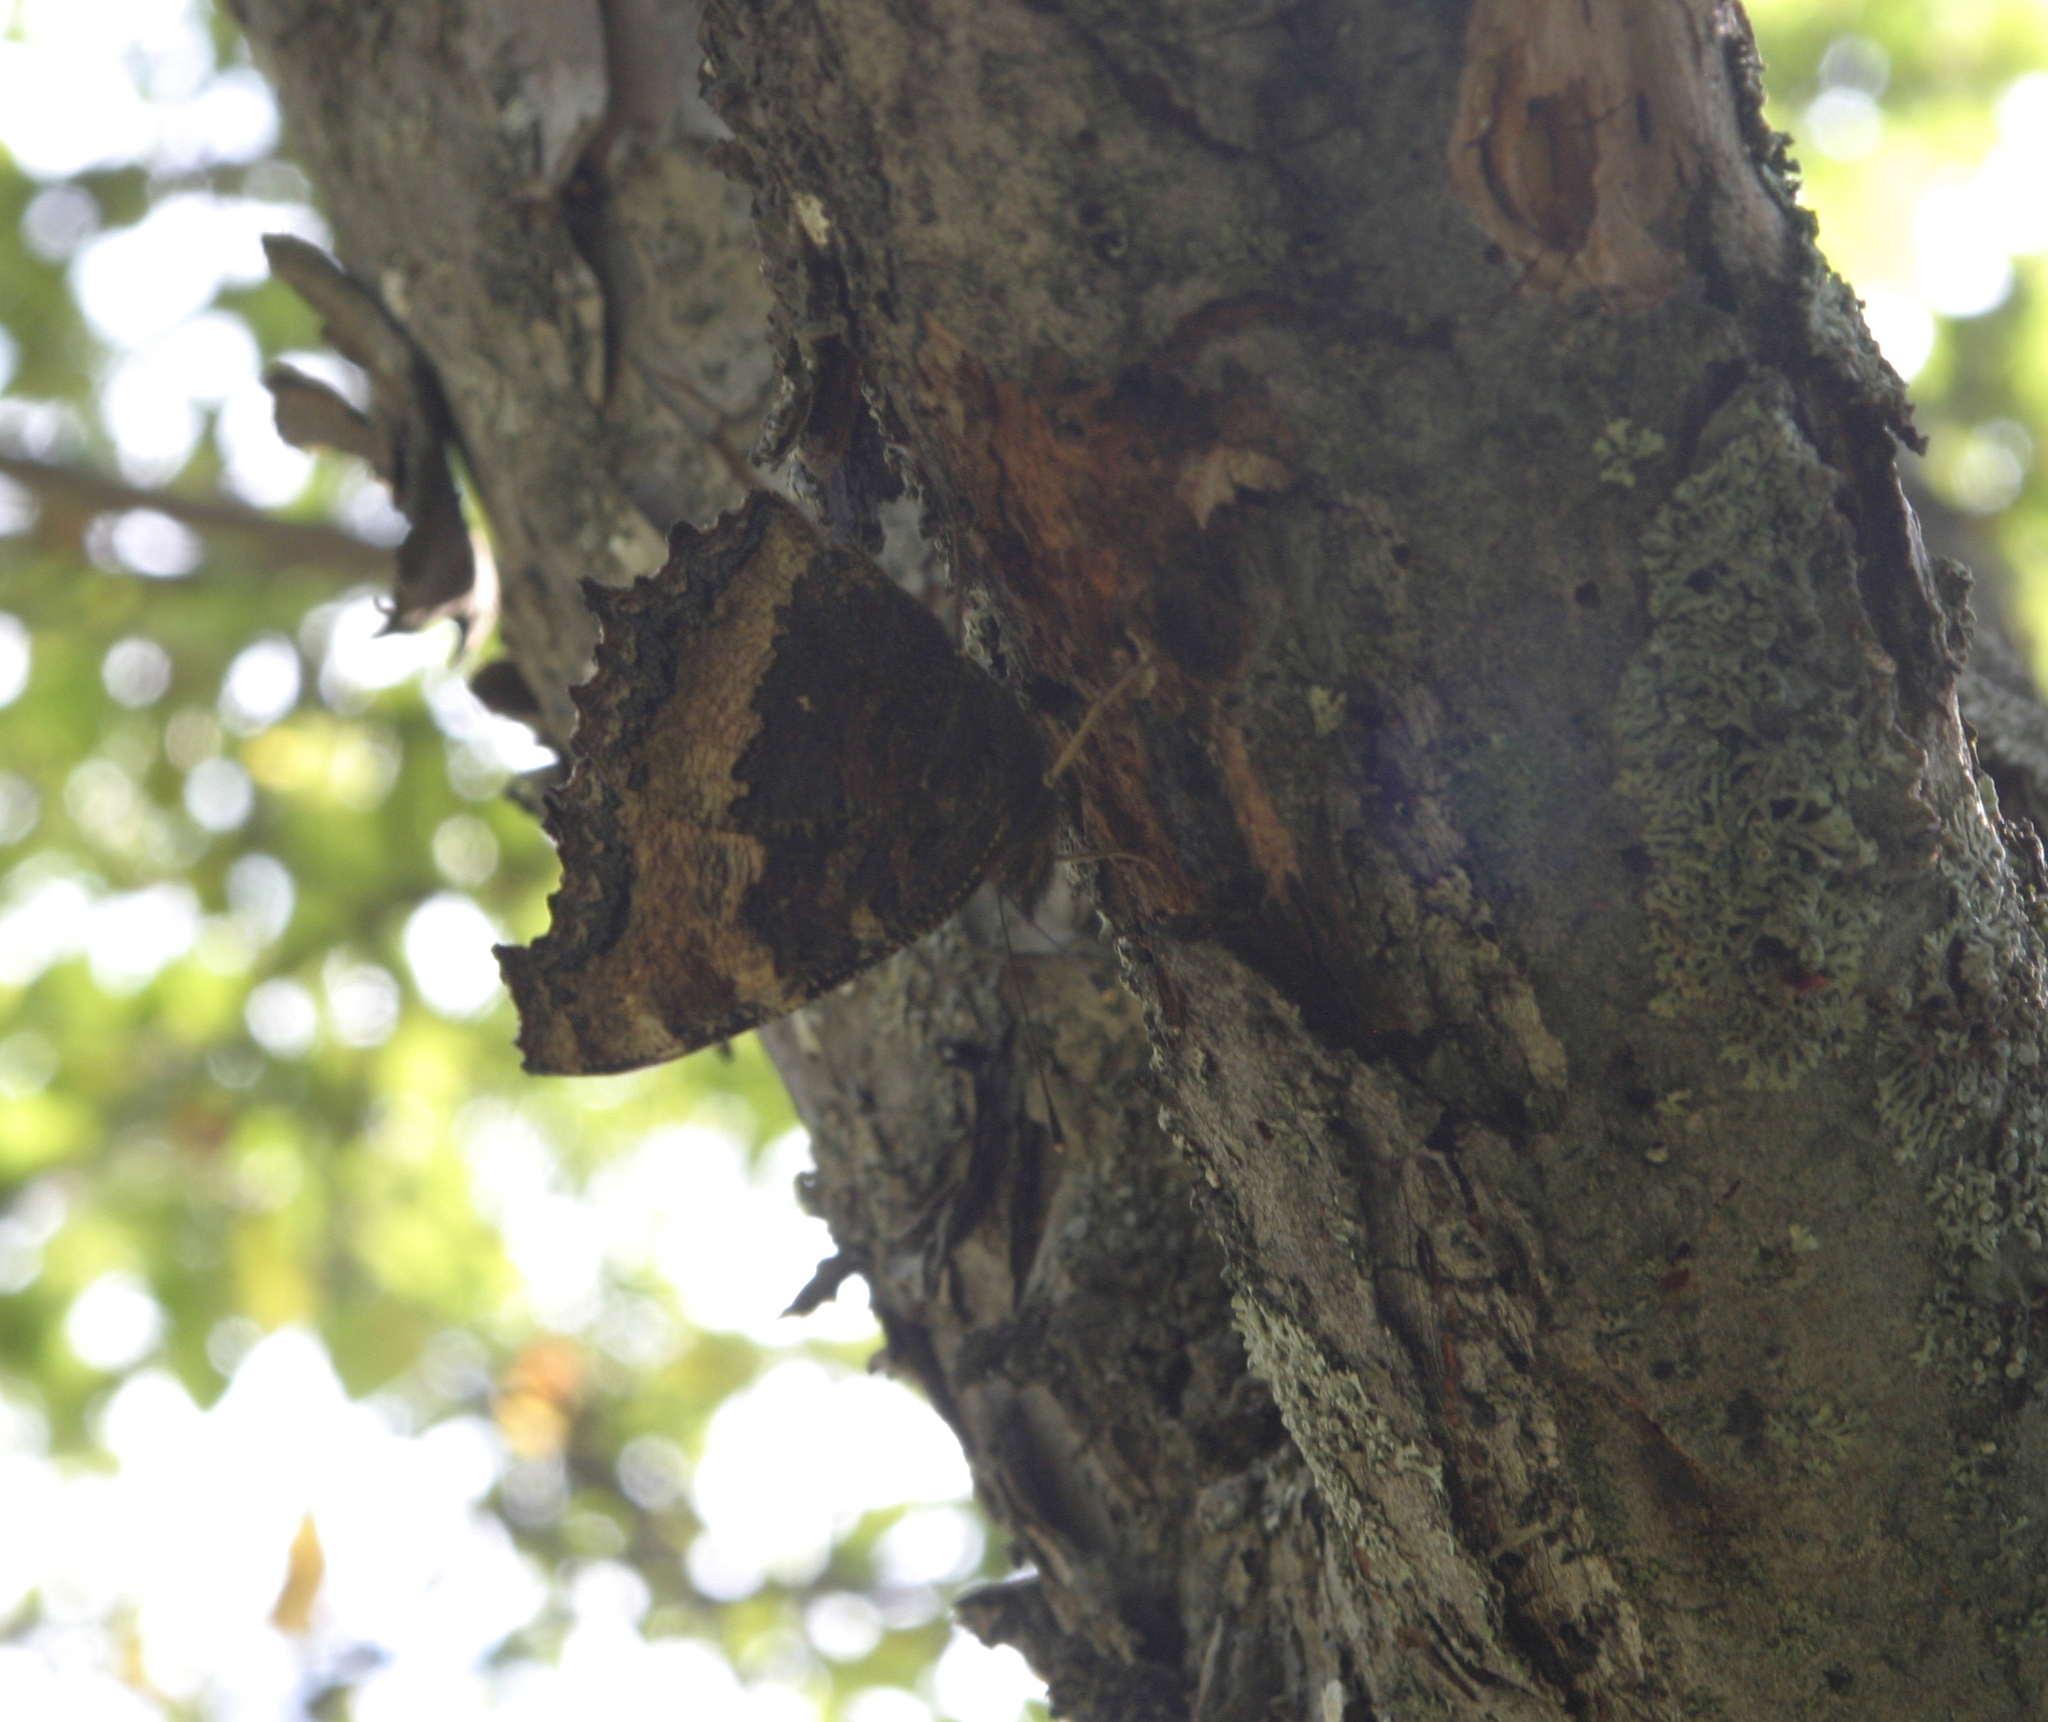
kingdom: Animalia
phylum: Arthropoda
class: Insecta
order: Lepidoptera
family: Nymphalidae
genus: Nymphalis
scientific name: Nymphalis xanthomelas
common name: Scarce tortoiseshell
